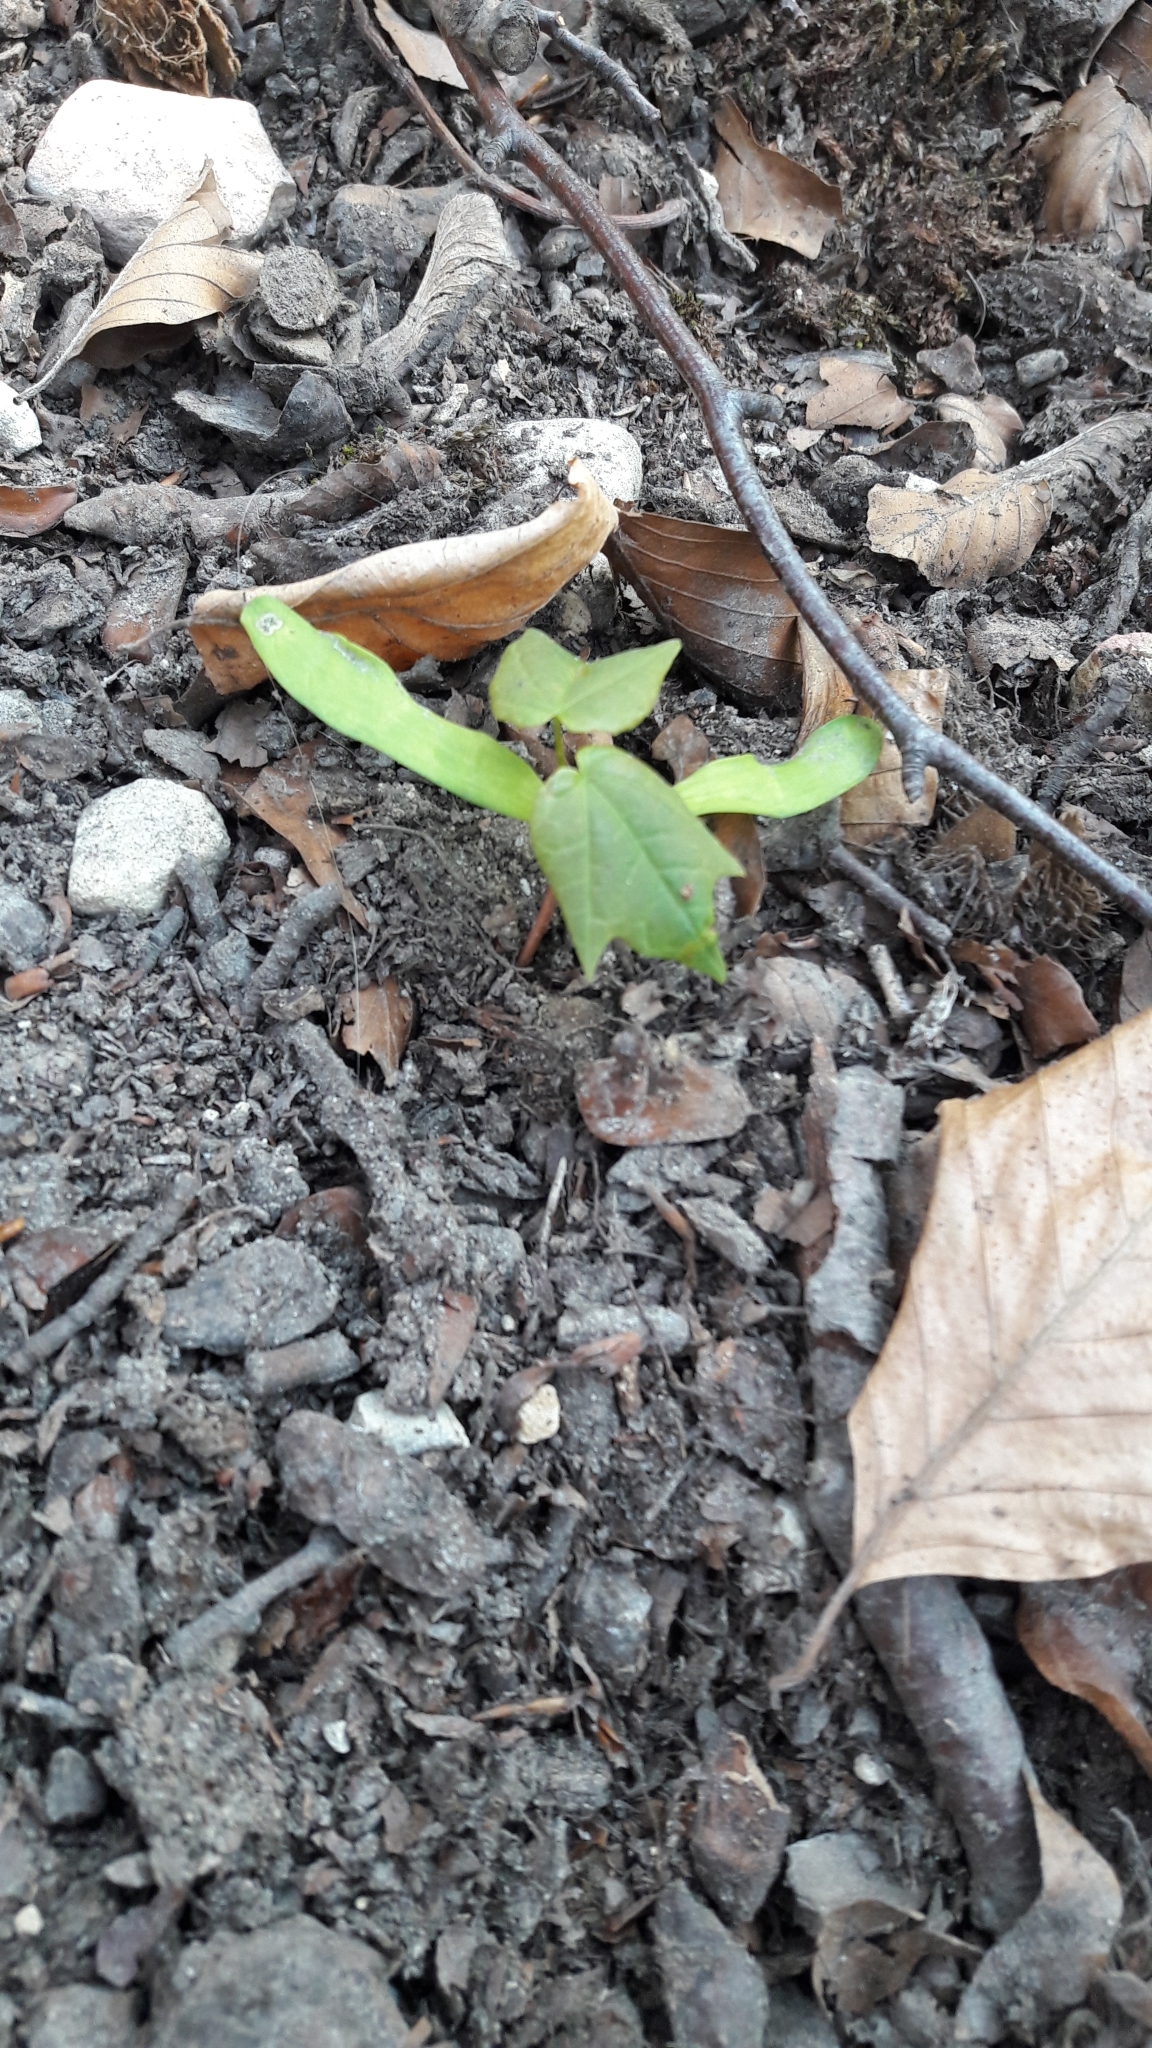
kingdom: Plantae
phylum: Tracheophyta
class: Magnoliopsida
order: Sapindales
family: Sapindaceae
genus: Acer
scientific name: Acer platanoides
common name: Norway maple
